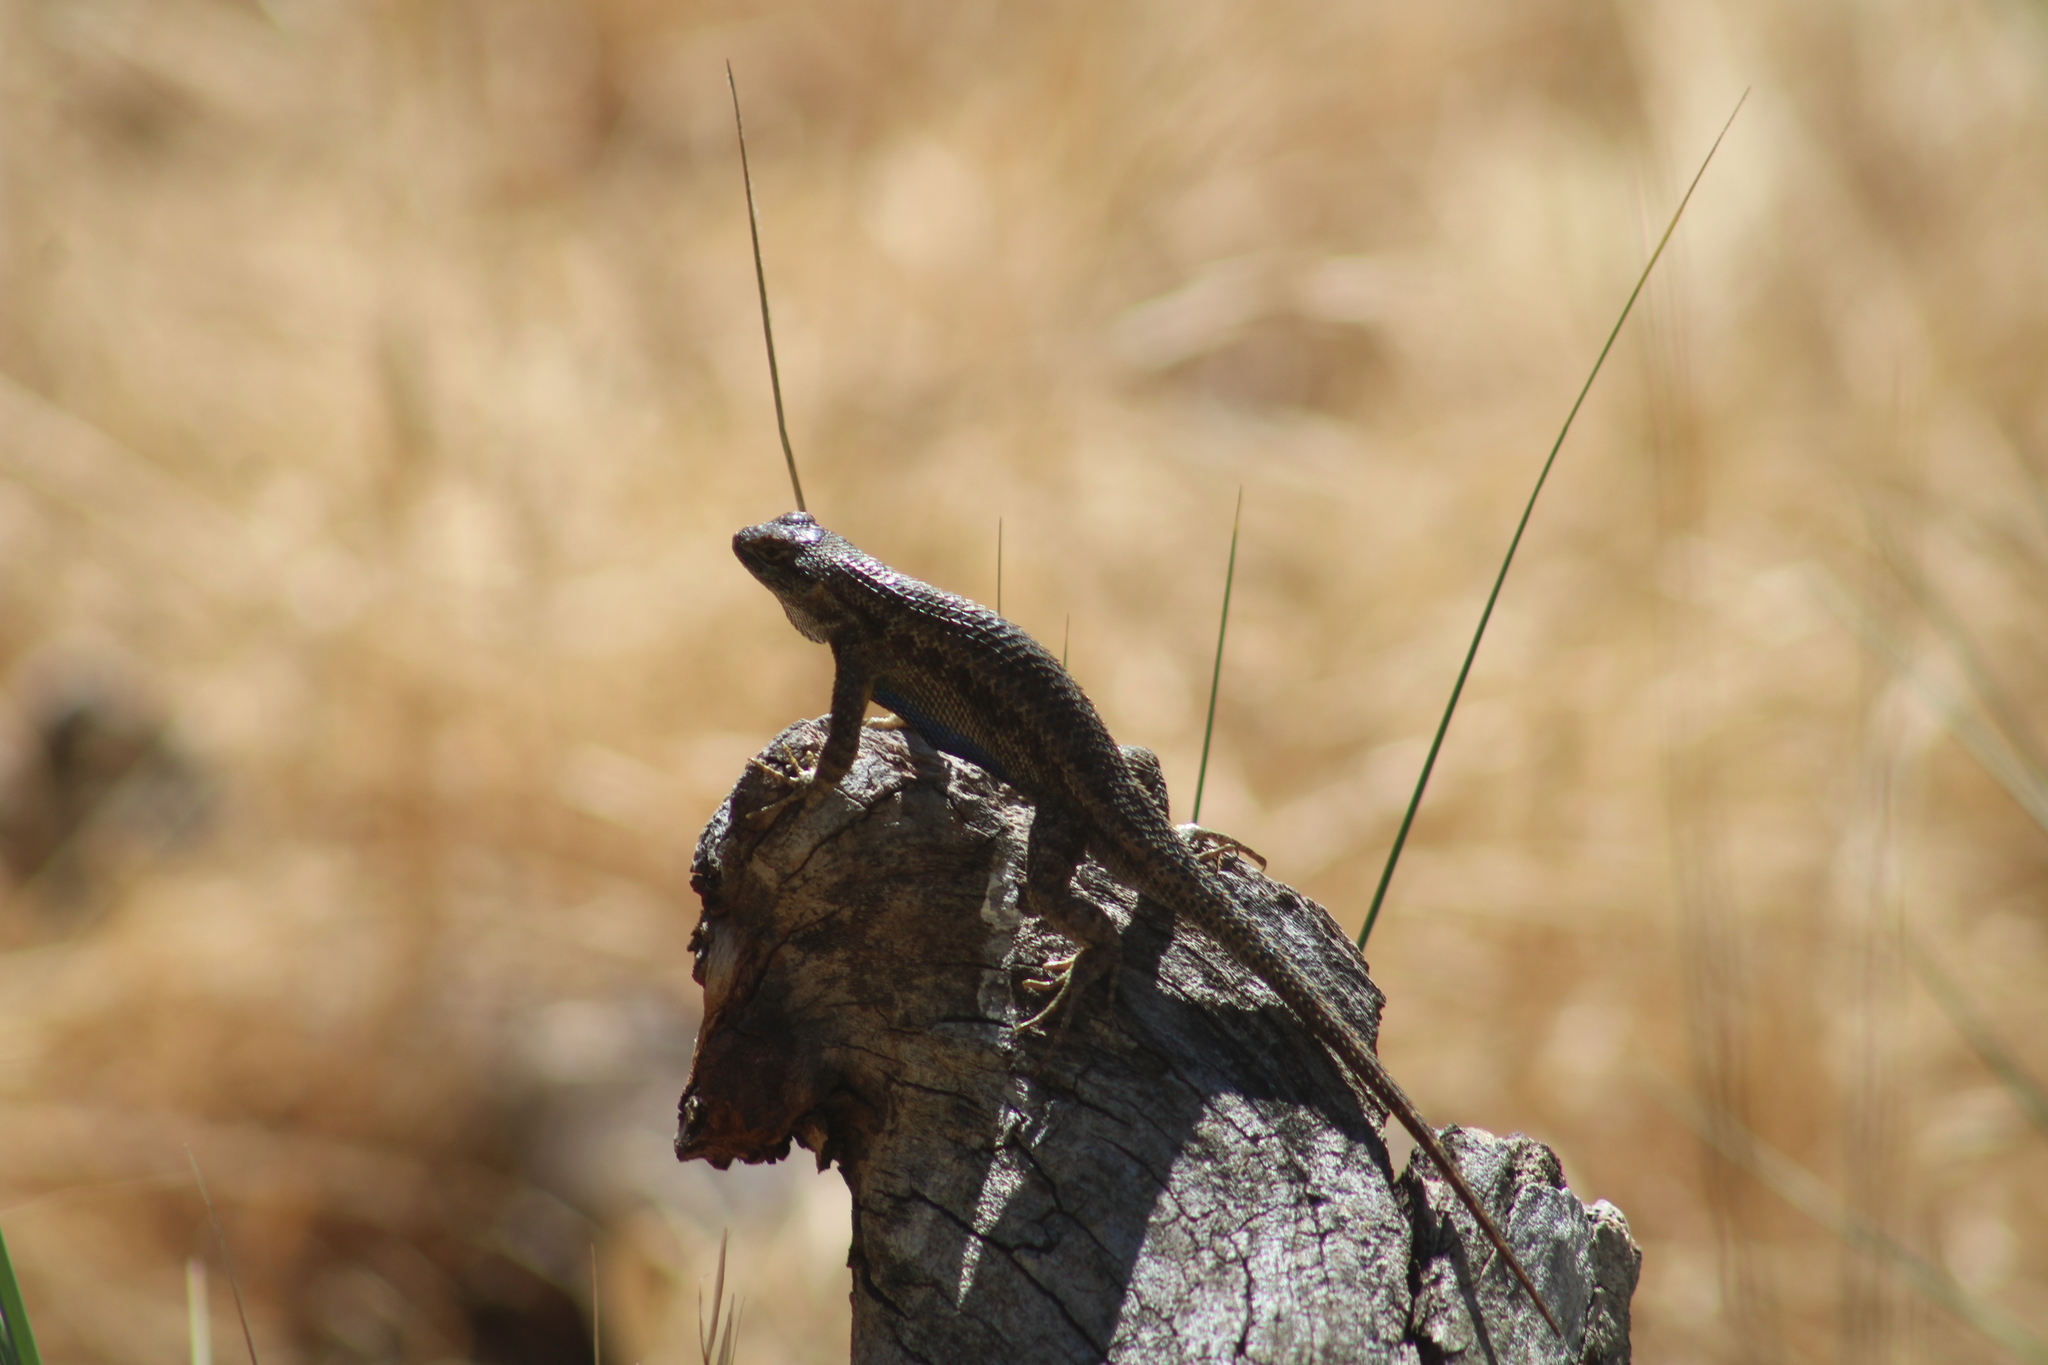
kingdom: Animalia
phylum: Chordata
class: Squamata
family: Phrynosomatidae
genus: Sceloporus
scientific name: Sceloporus occidentalis
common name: Western fence lizard
